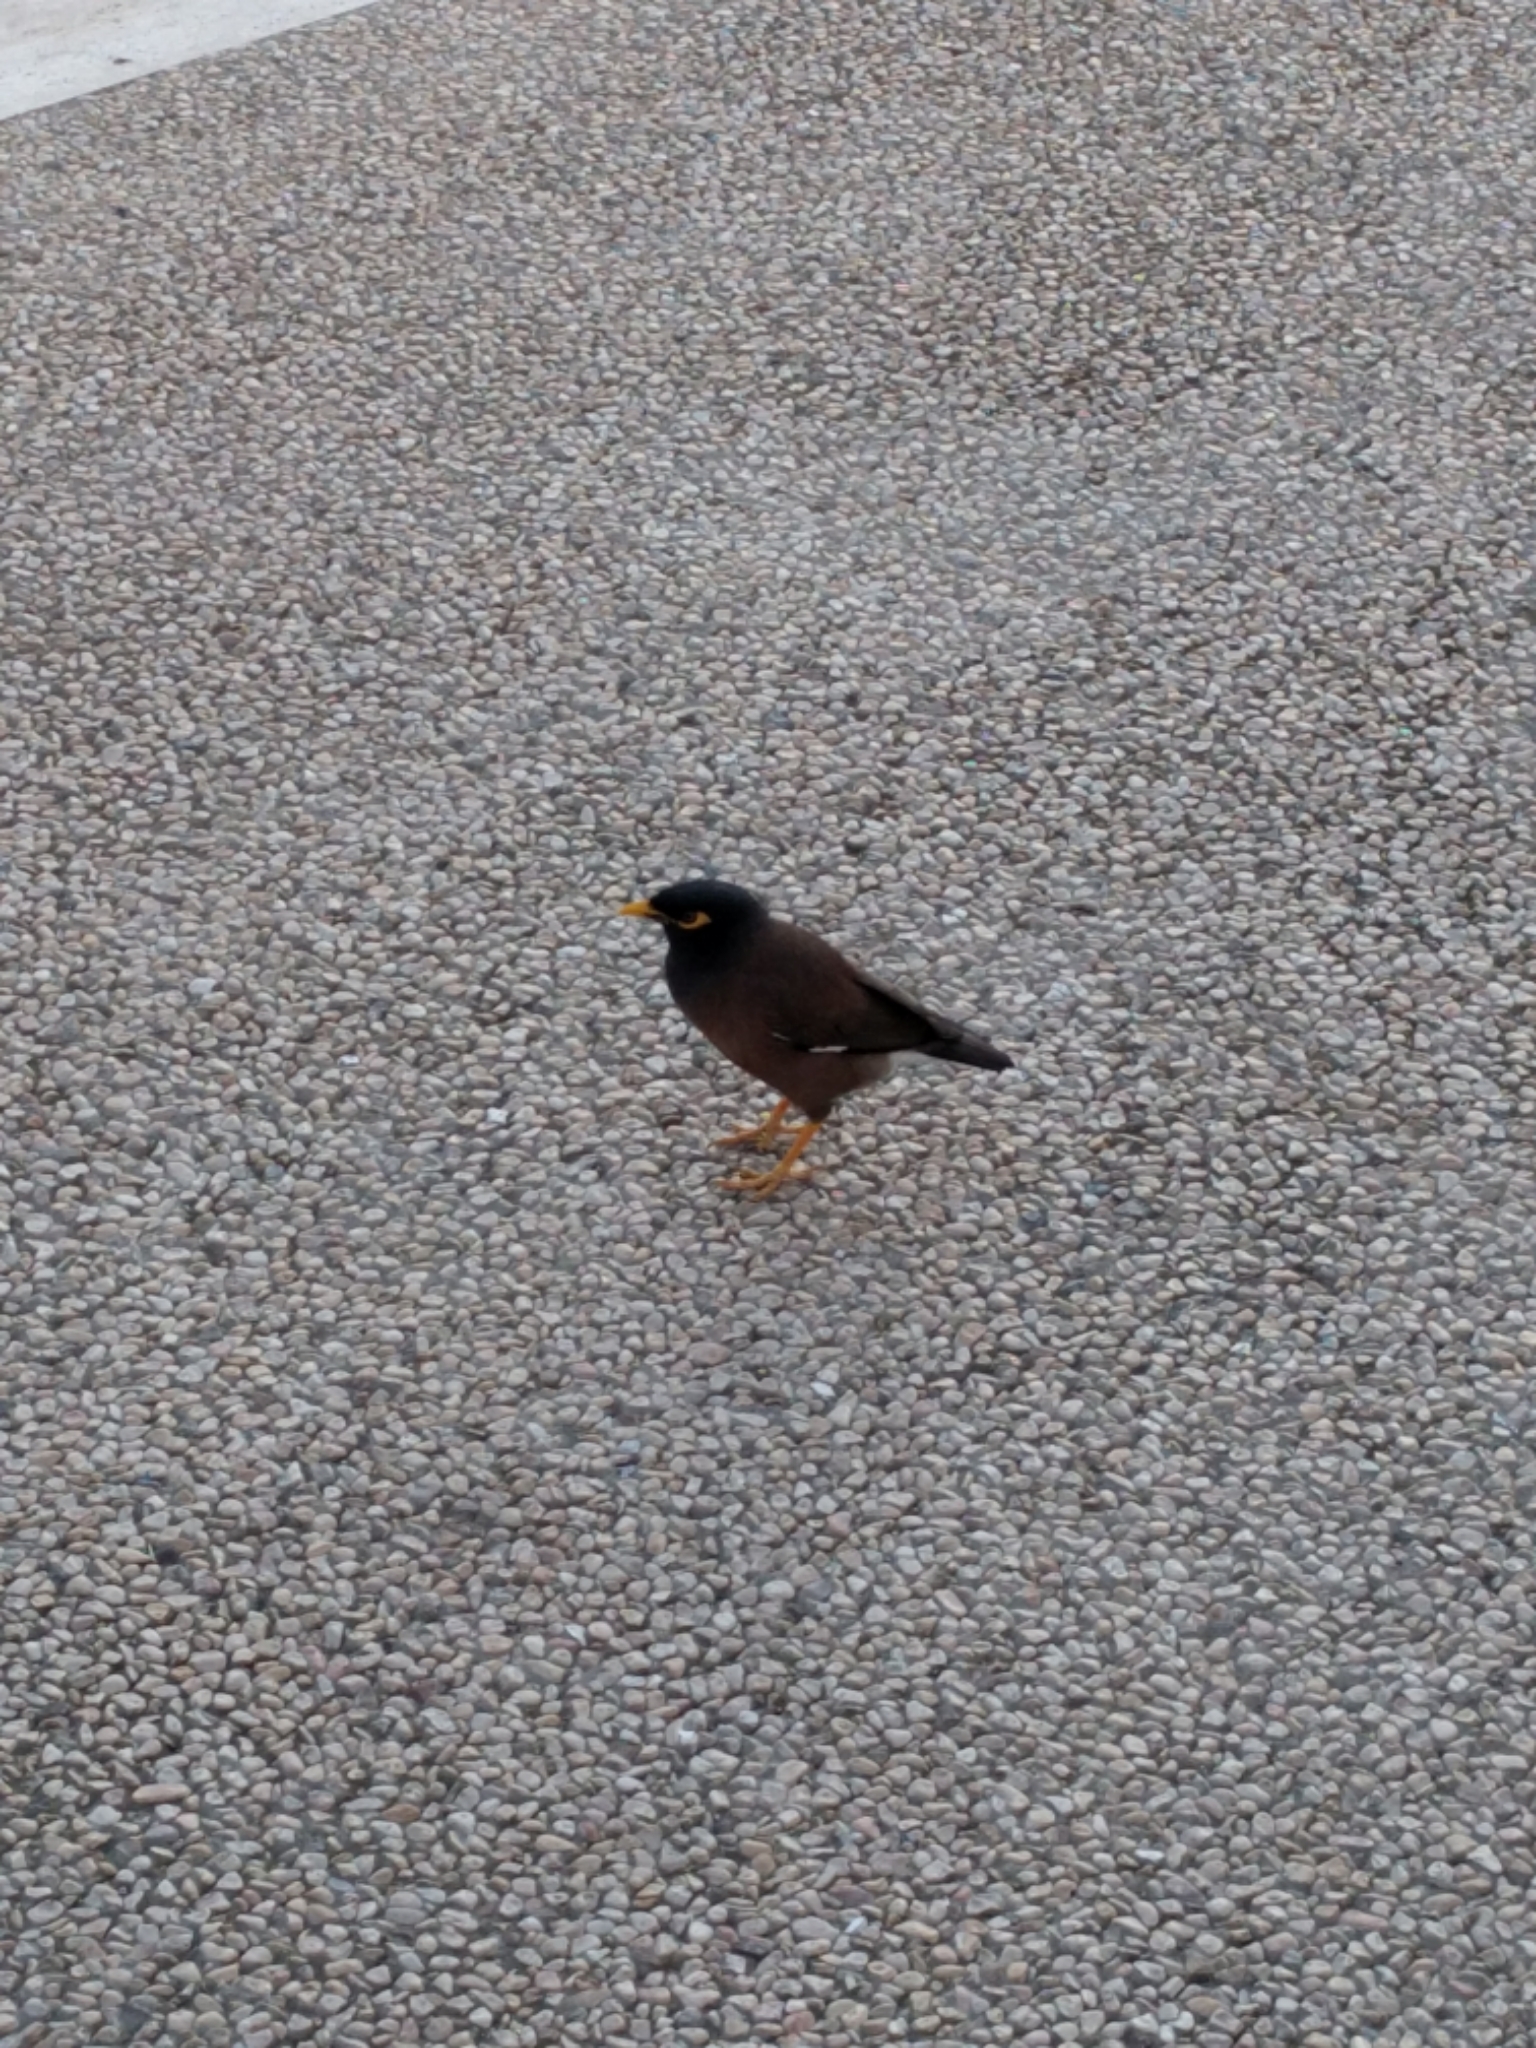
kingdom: Animalia
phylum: Chordata
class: Aves
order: Passeriformes
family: Sturnidae
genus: Acridotheres
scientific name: Acridotheres tristis
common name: Common myna
